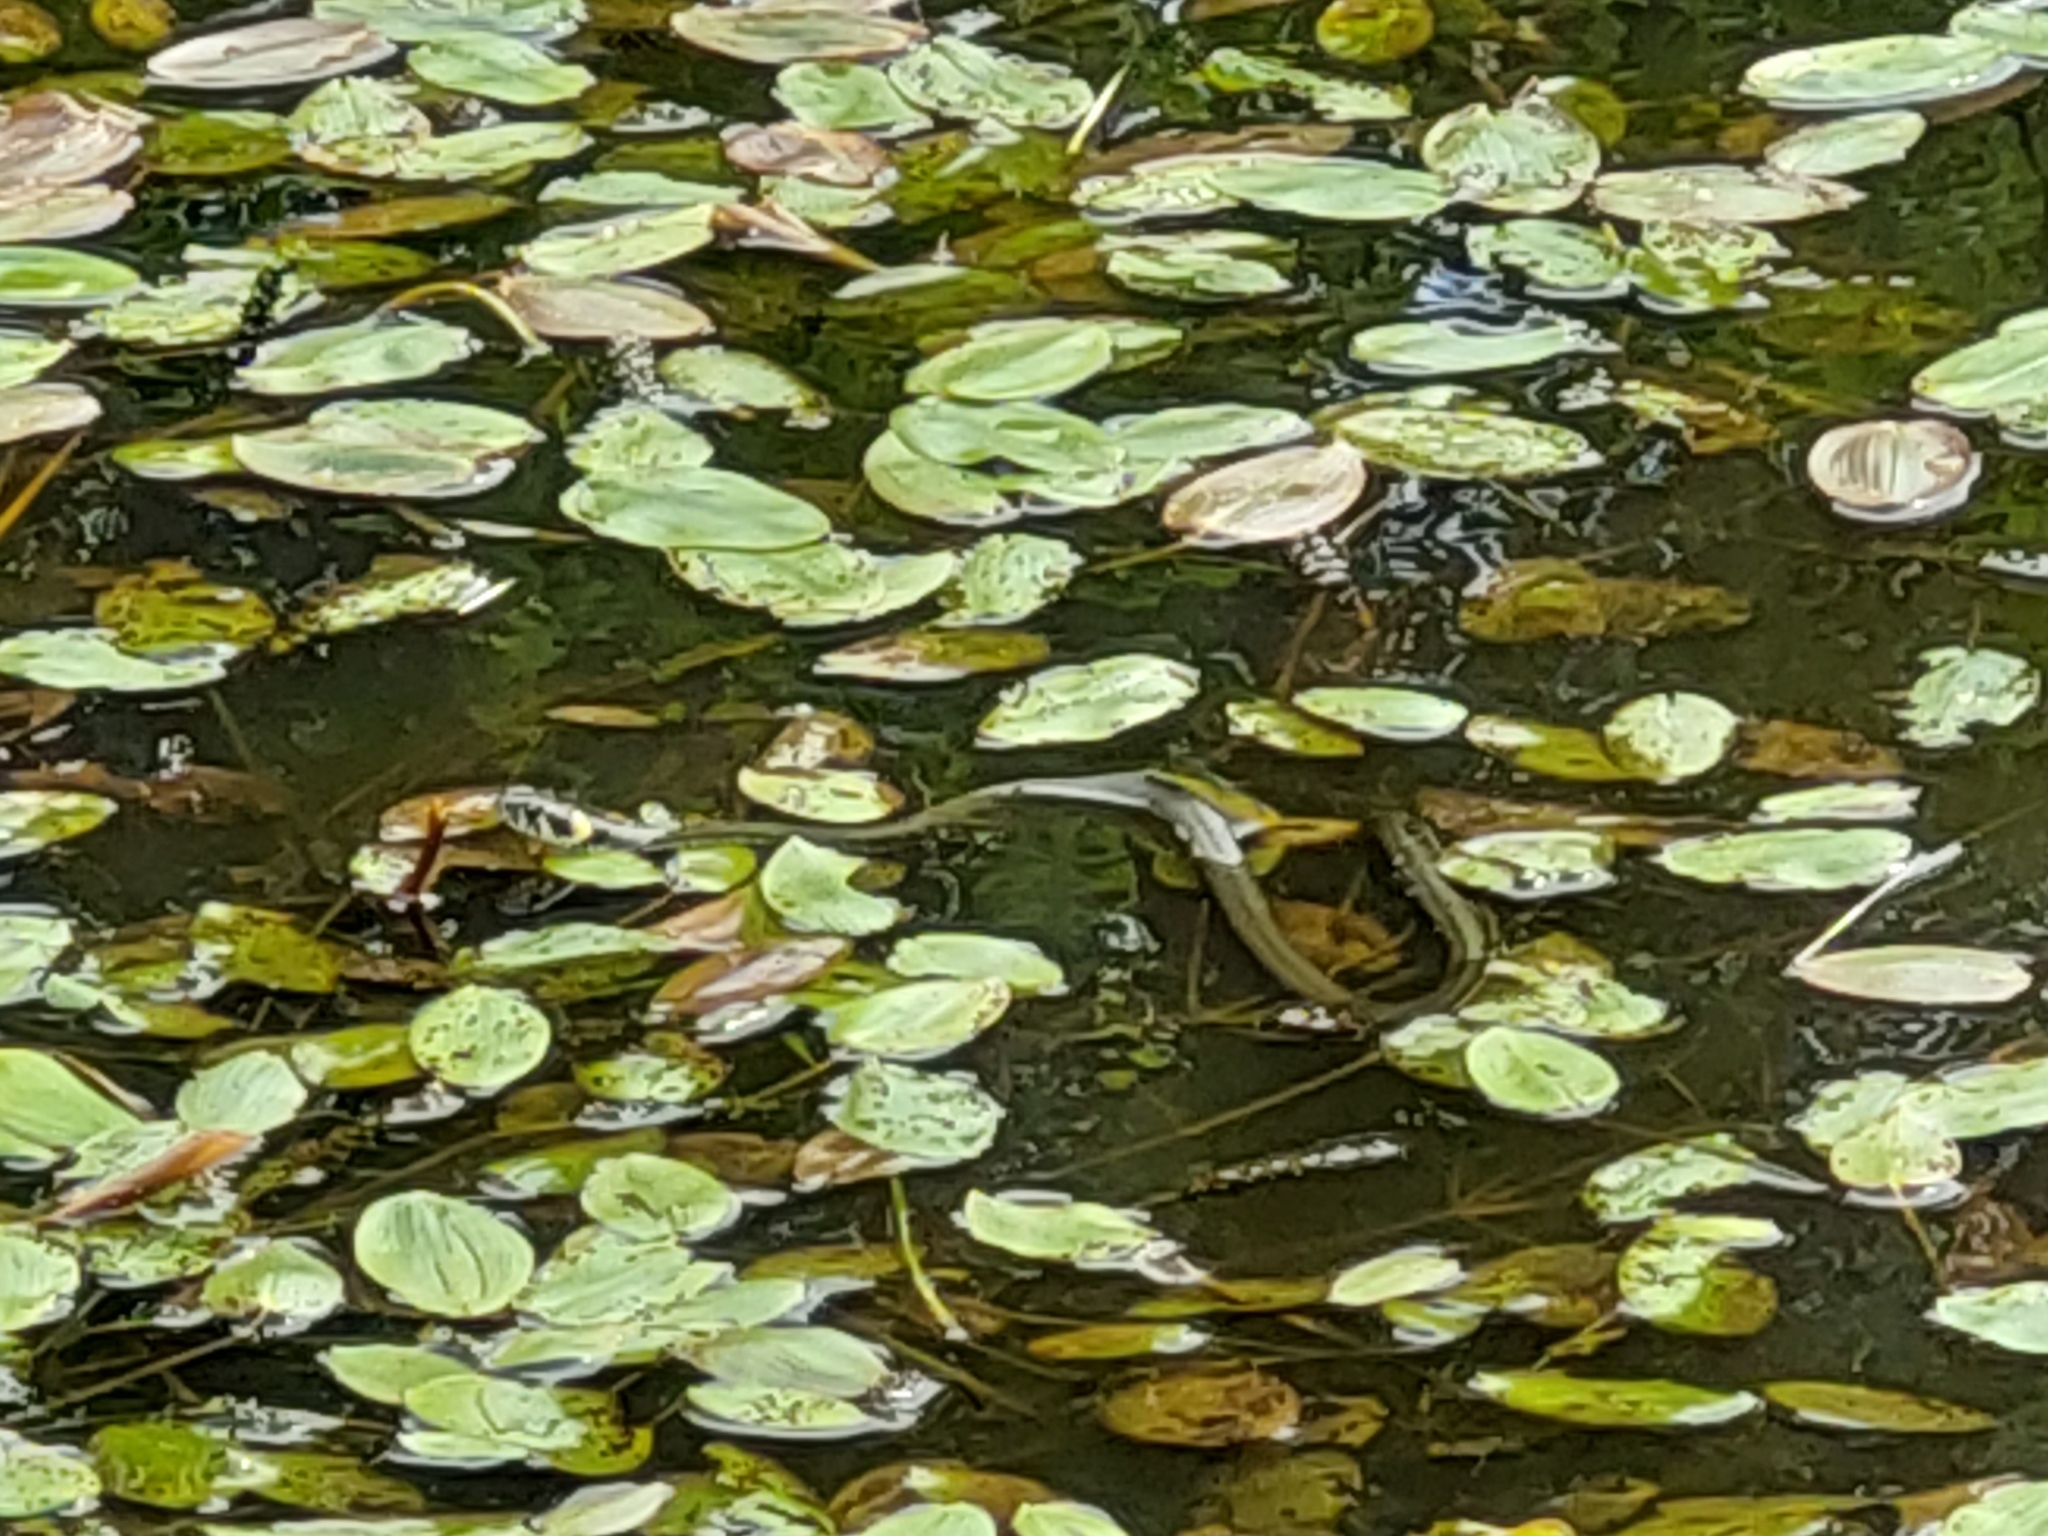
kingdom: Animalia
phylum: Chordata
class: Squamata
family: Colubridae
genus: Natrix
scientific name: Natrix natrix
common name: Grass snake
